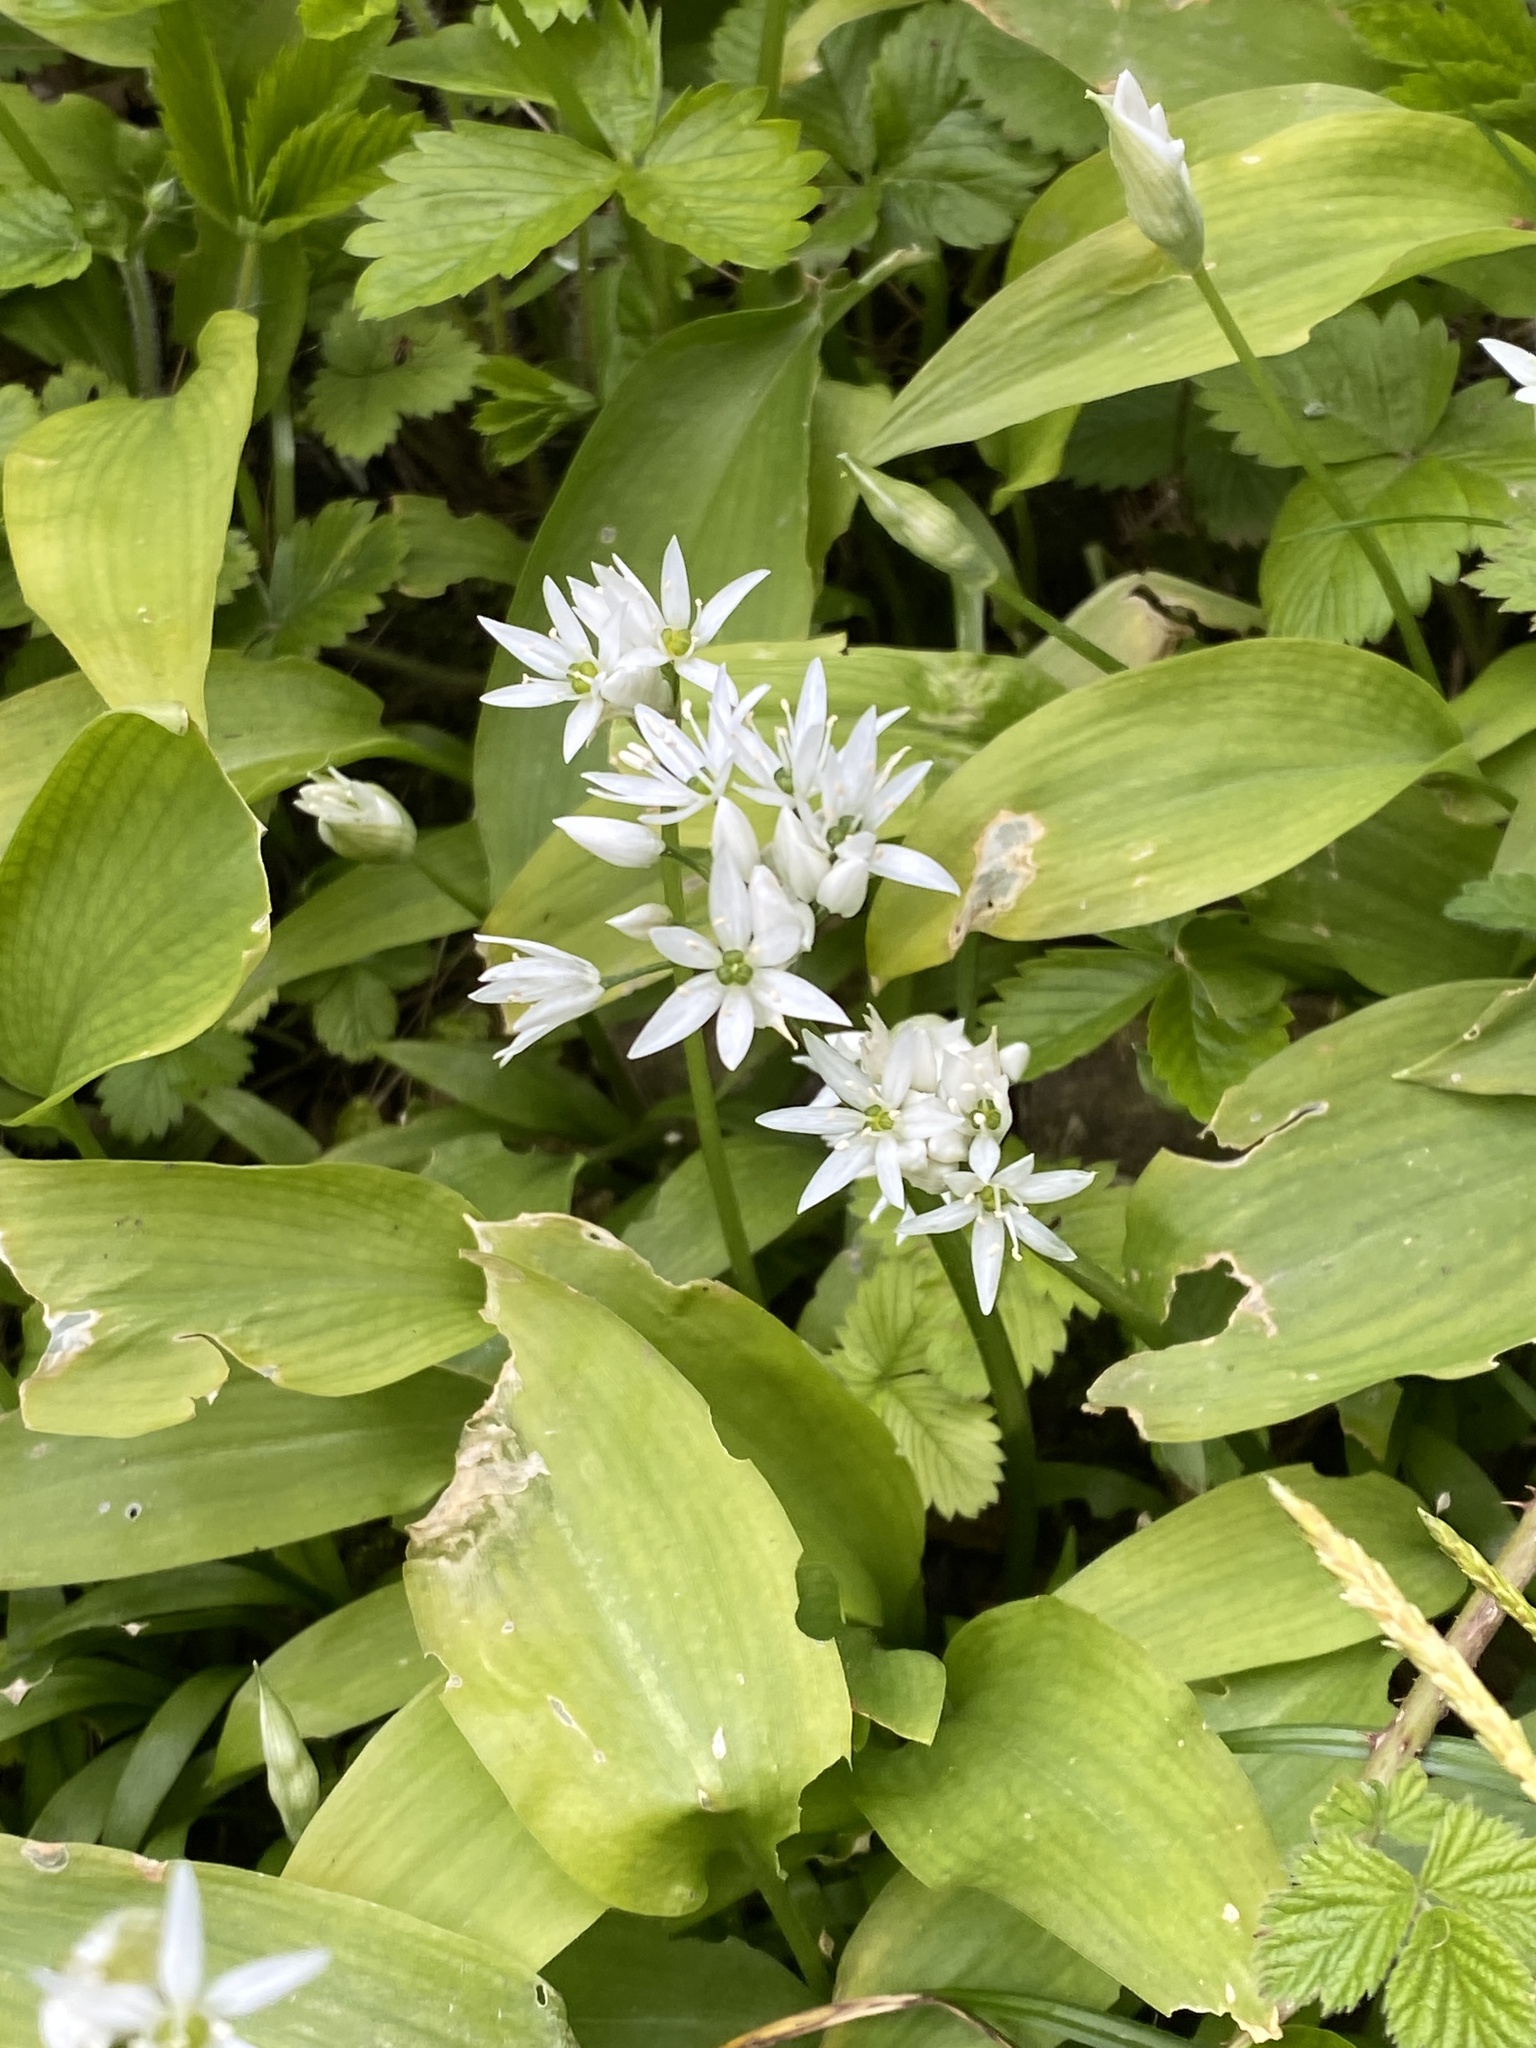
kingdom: Plantae
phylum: Tracheophyta
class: Liliopsida
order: Asparagales
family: Amaryllidaceae
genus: Allium
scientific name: Allium ursinum
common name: Ramsons
